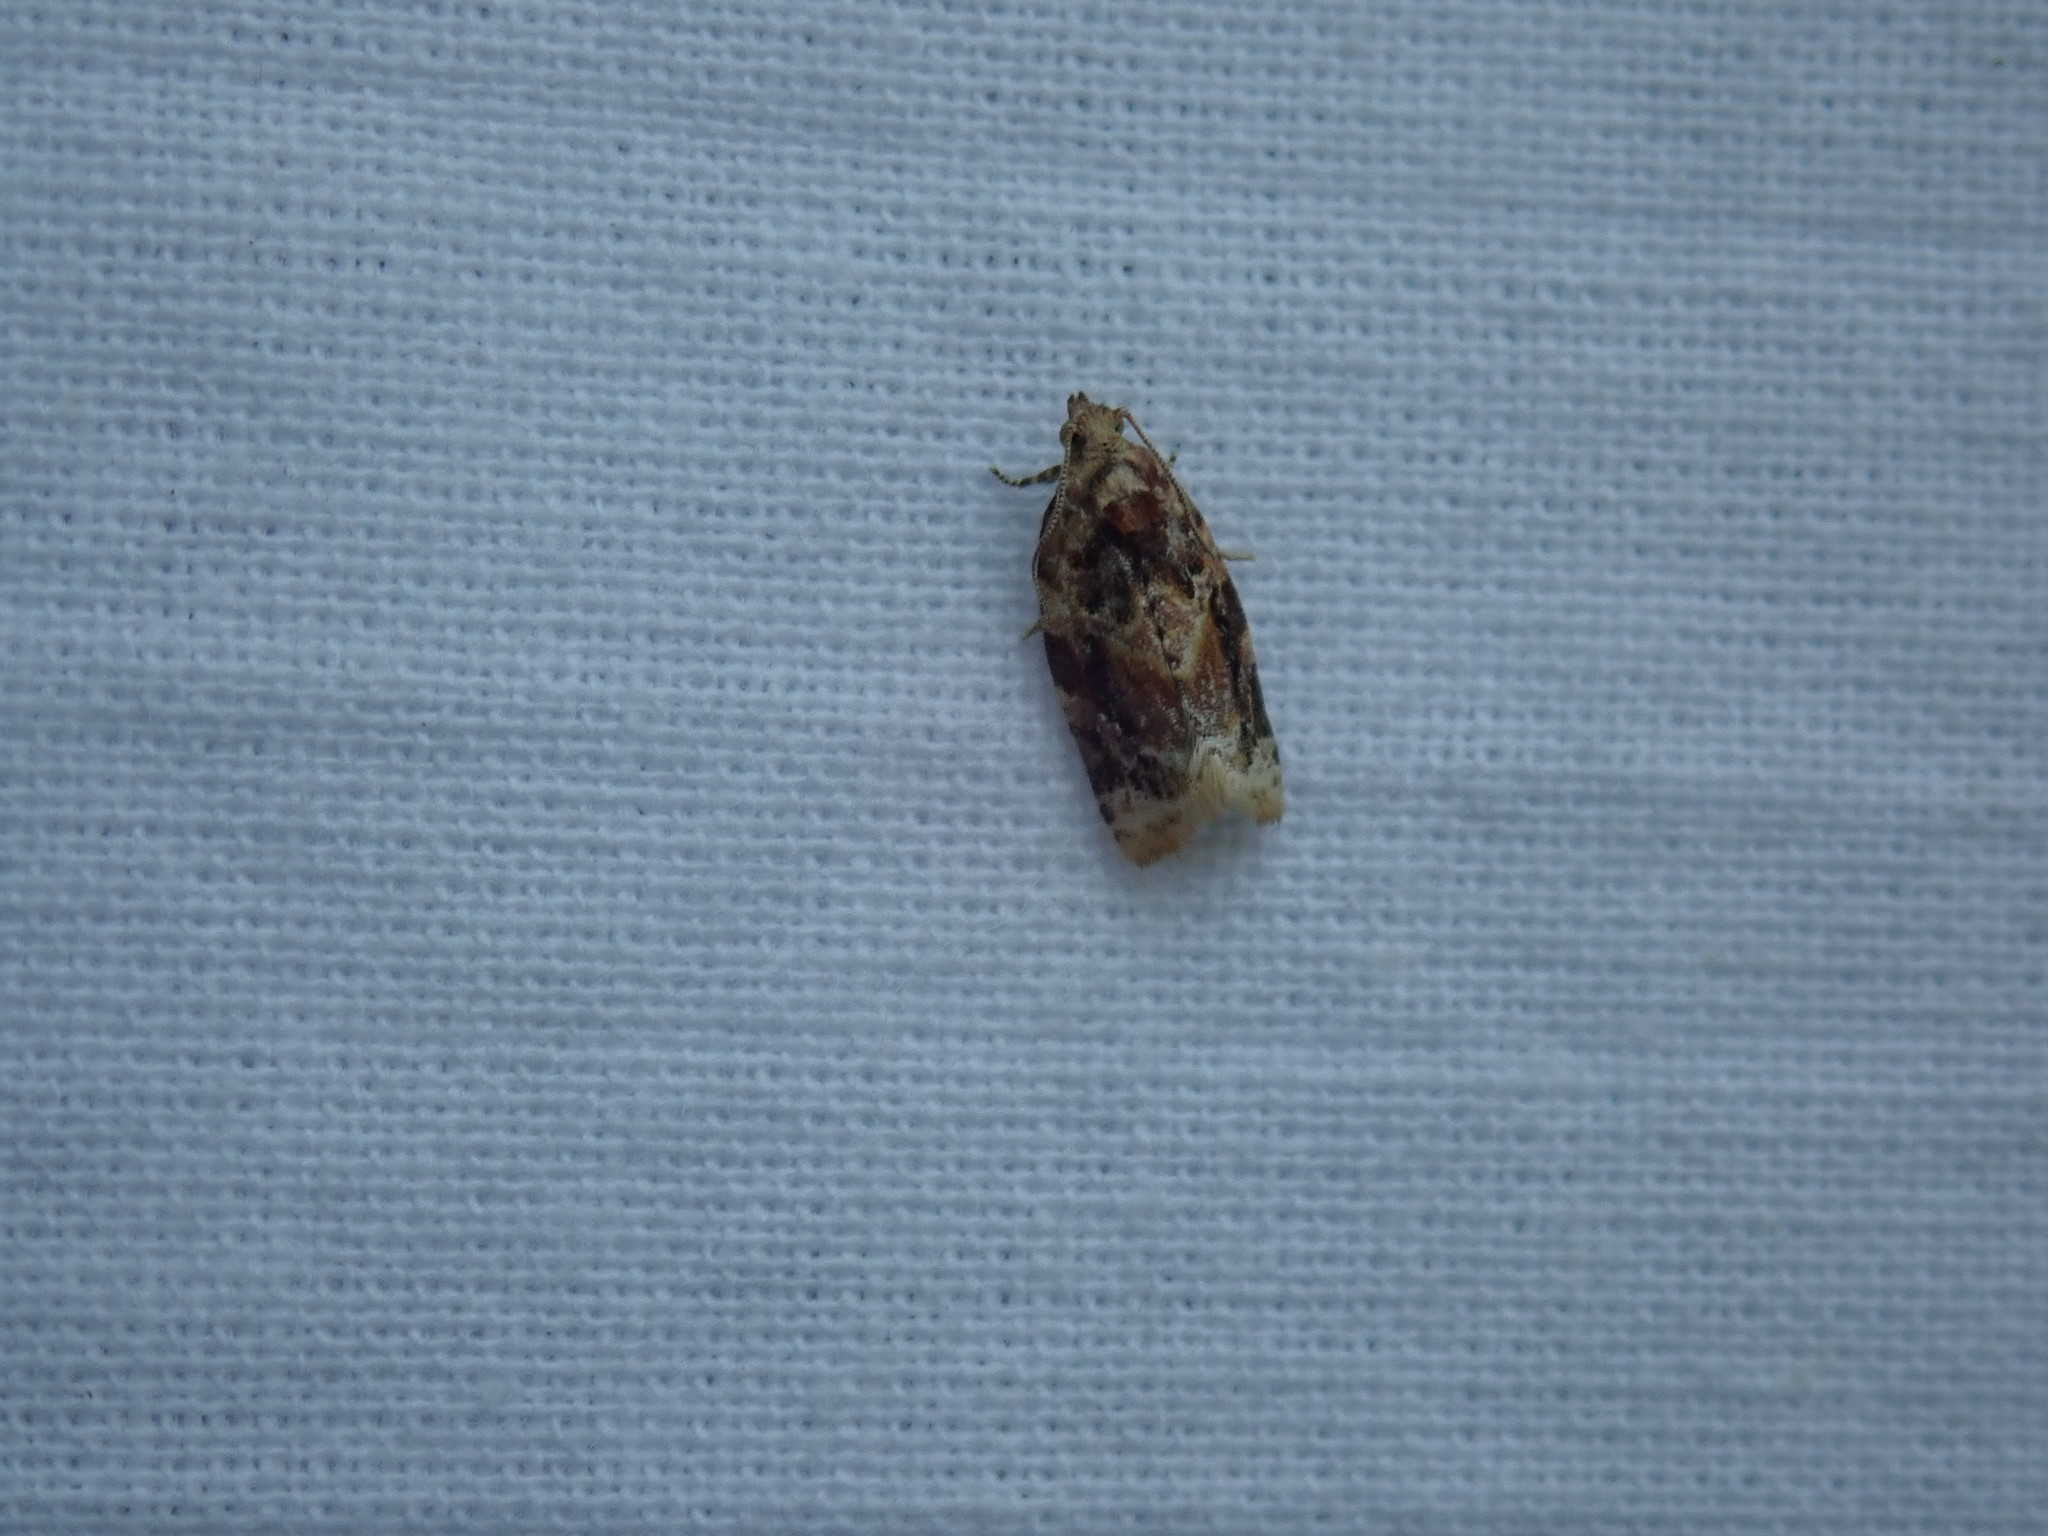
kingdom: Animalia
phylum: Arthropoda
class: Insecta
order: Lepidoptera
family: Tortricidae
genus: Argyrotaenia
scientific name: Argyrotaenia velutinana
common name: Red-banded leafroller moth
